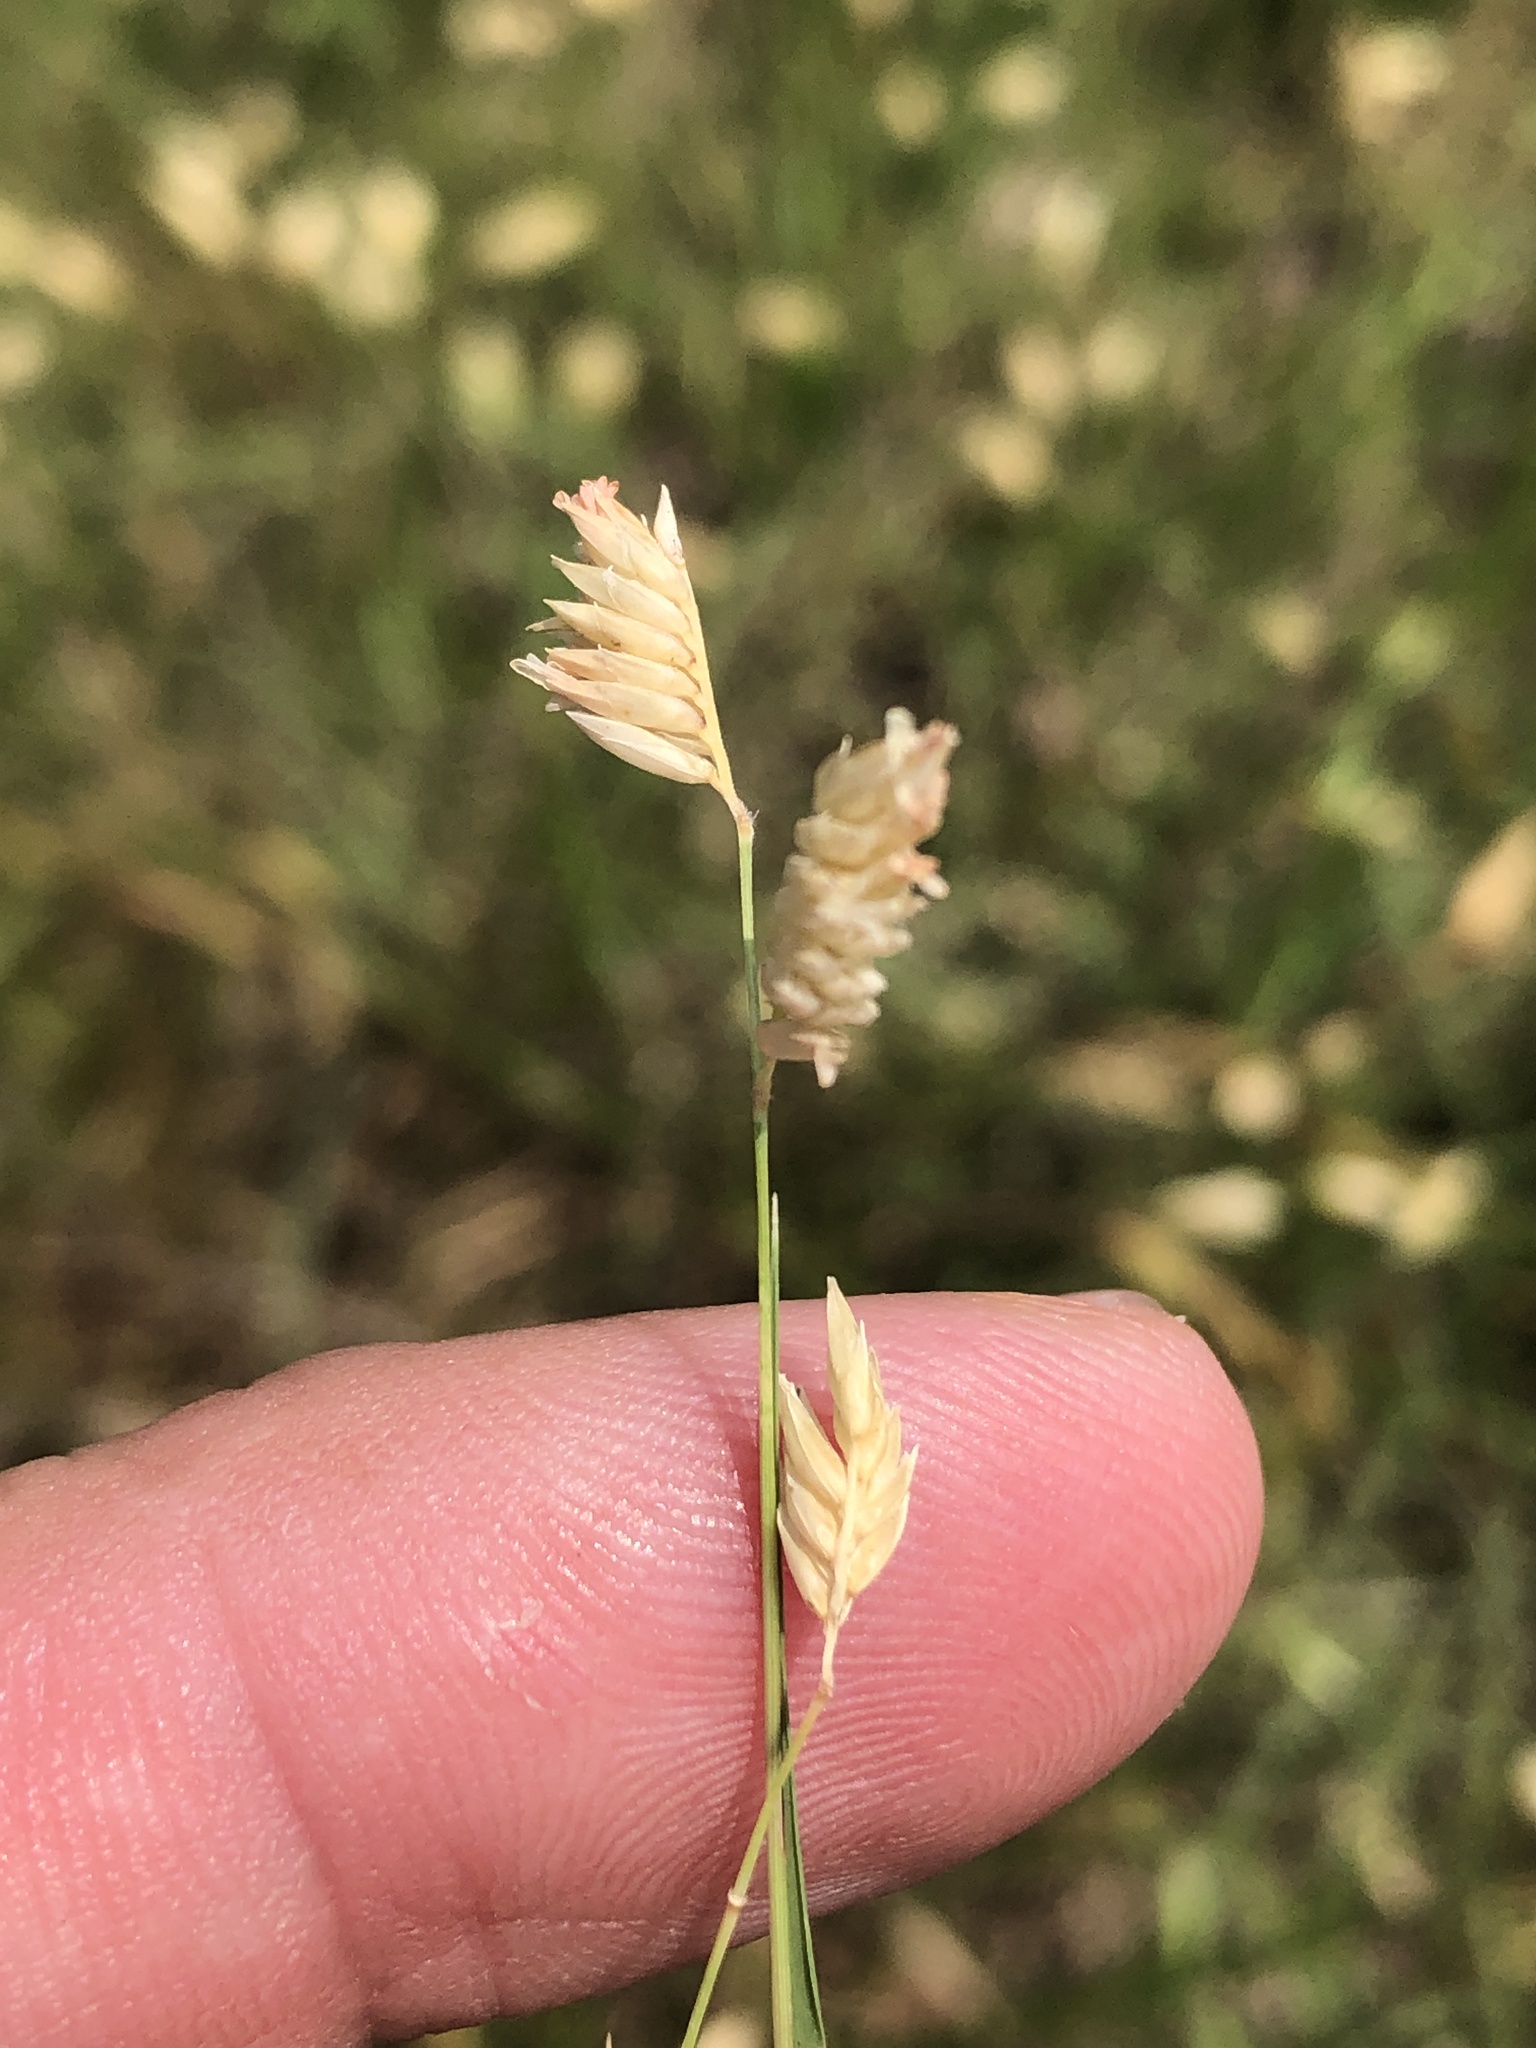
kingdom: Plantae
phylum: Tracheophyta
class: Liliopsida
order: Poales
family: Poaceae
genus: Bouteloua
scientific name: Bouteloua dactyloides
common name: Buffalo grass
